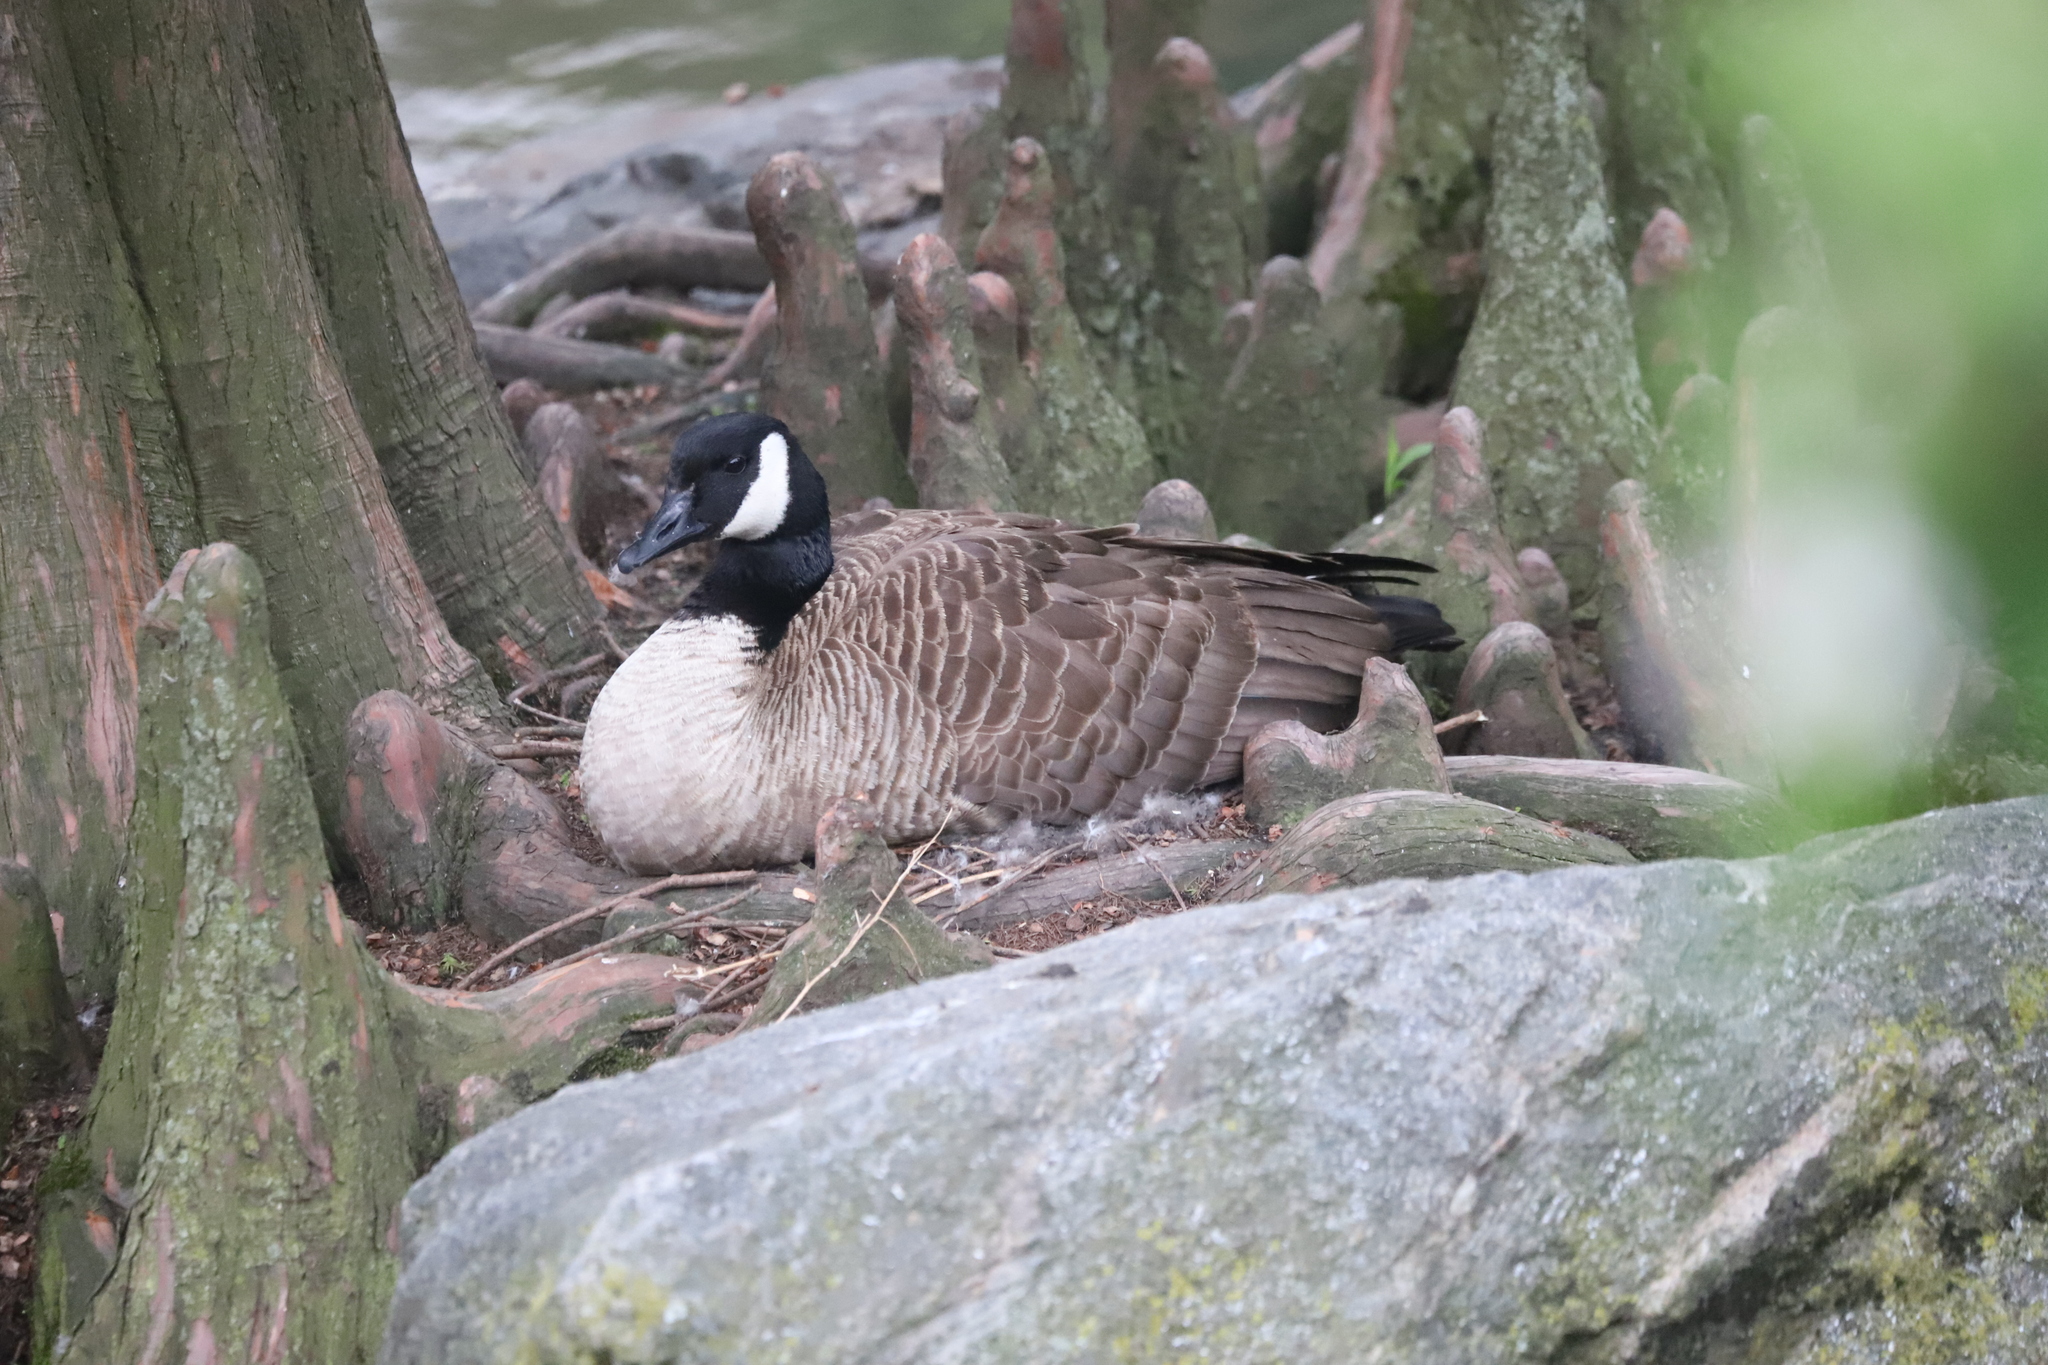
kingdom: Animalia
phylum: Chordata
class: Aves
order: Anseriformes
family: Anatidae
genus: Branta
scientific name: Branta canadensis
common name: Canada goose
